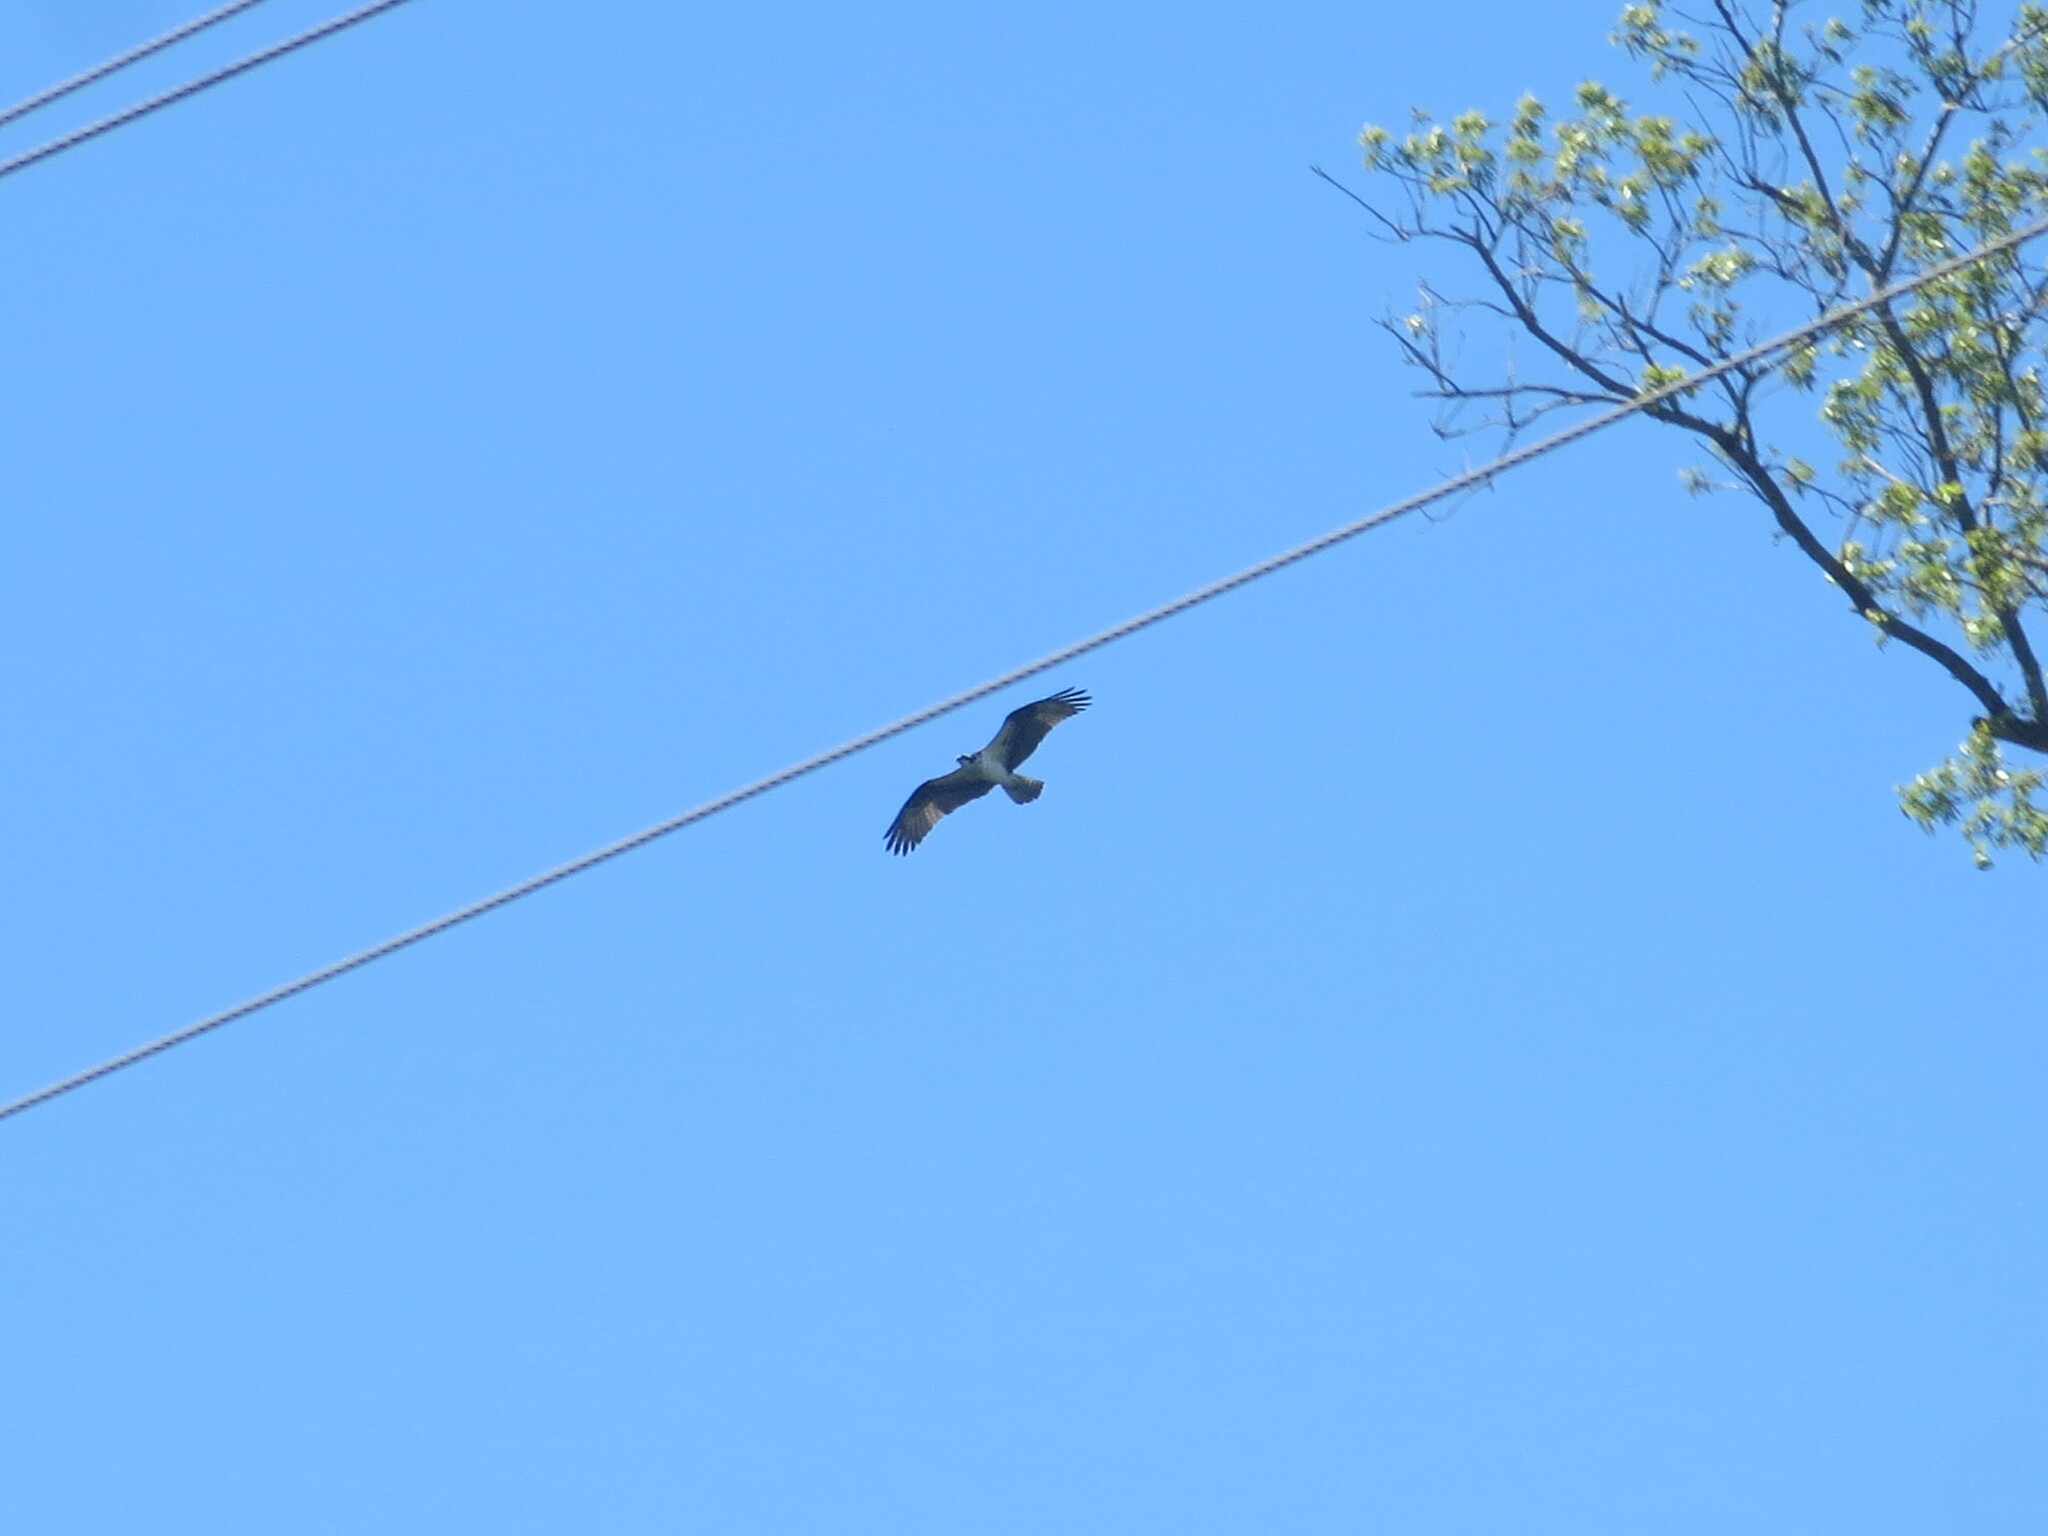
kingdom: Animalia
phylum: Chordata
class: Aves
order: Accipitriformes
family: Pandionidae
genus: Pandion
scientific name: Pandion haliaetus
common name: Osprey
